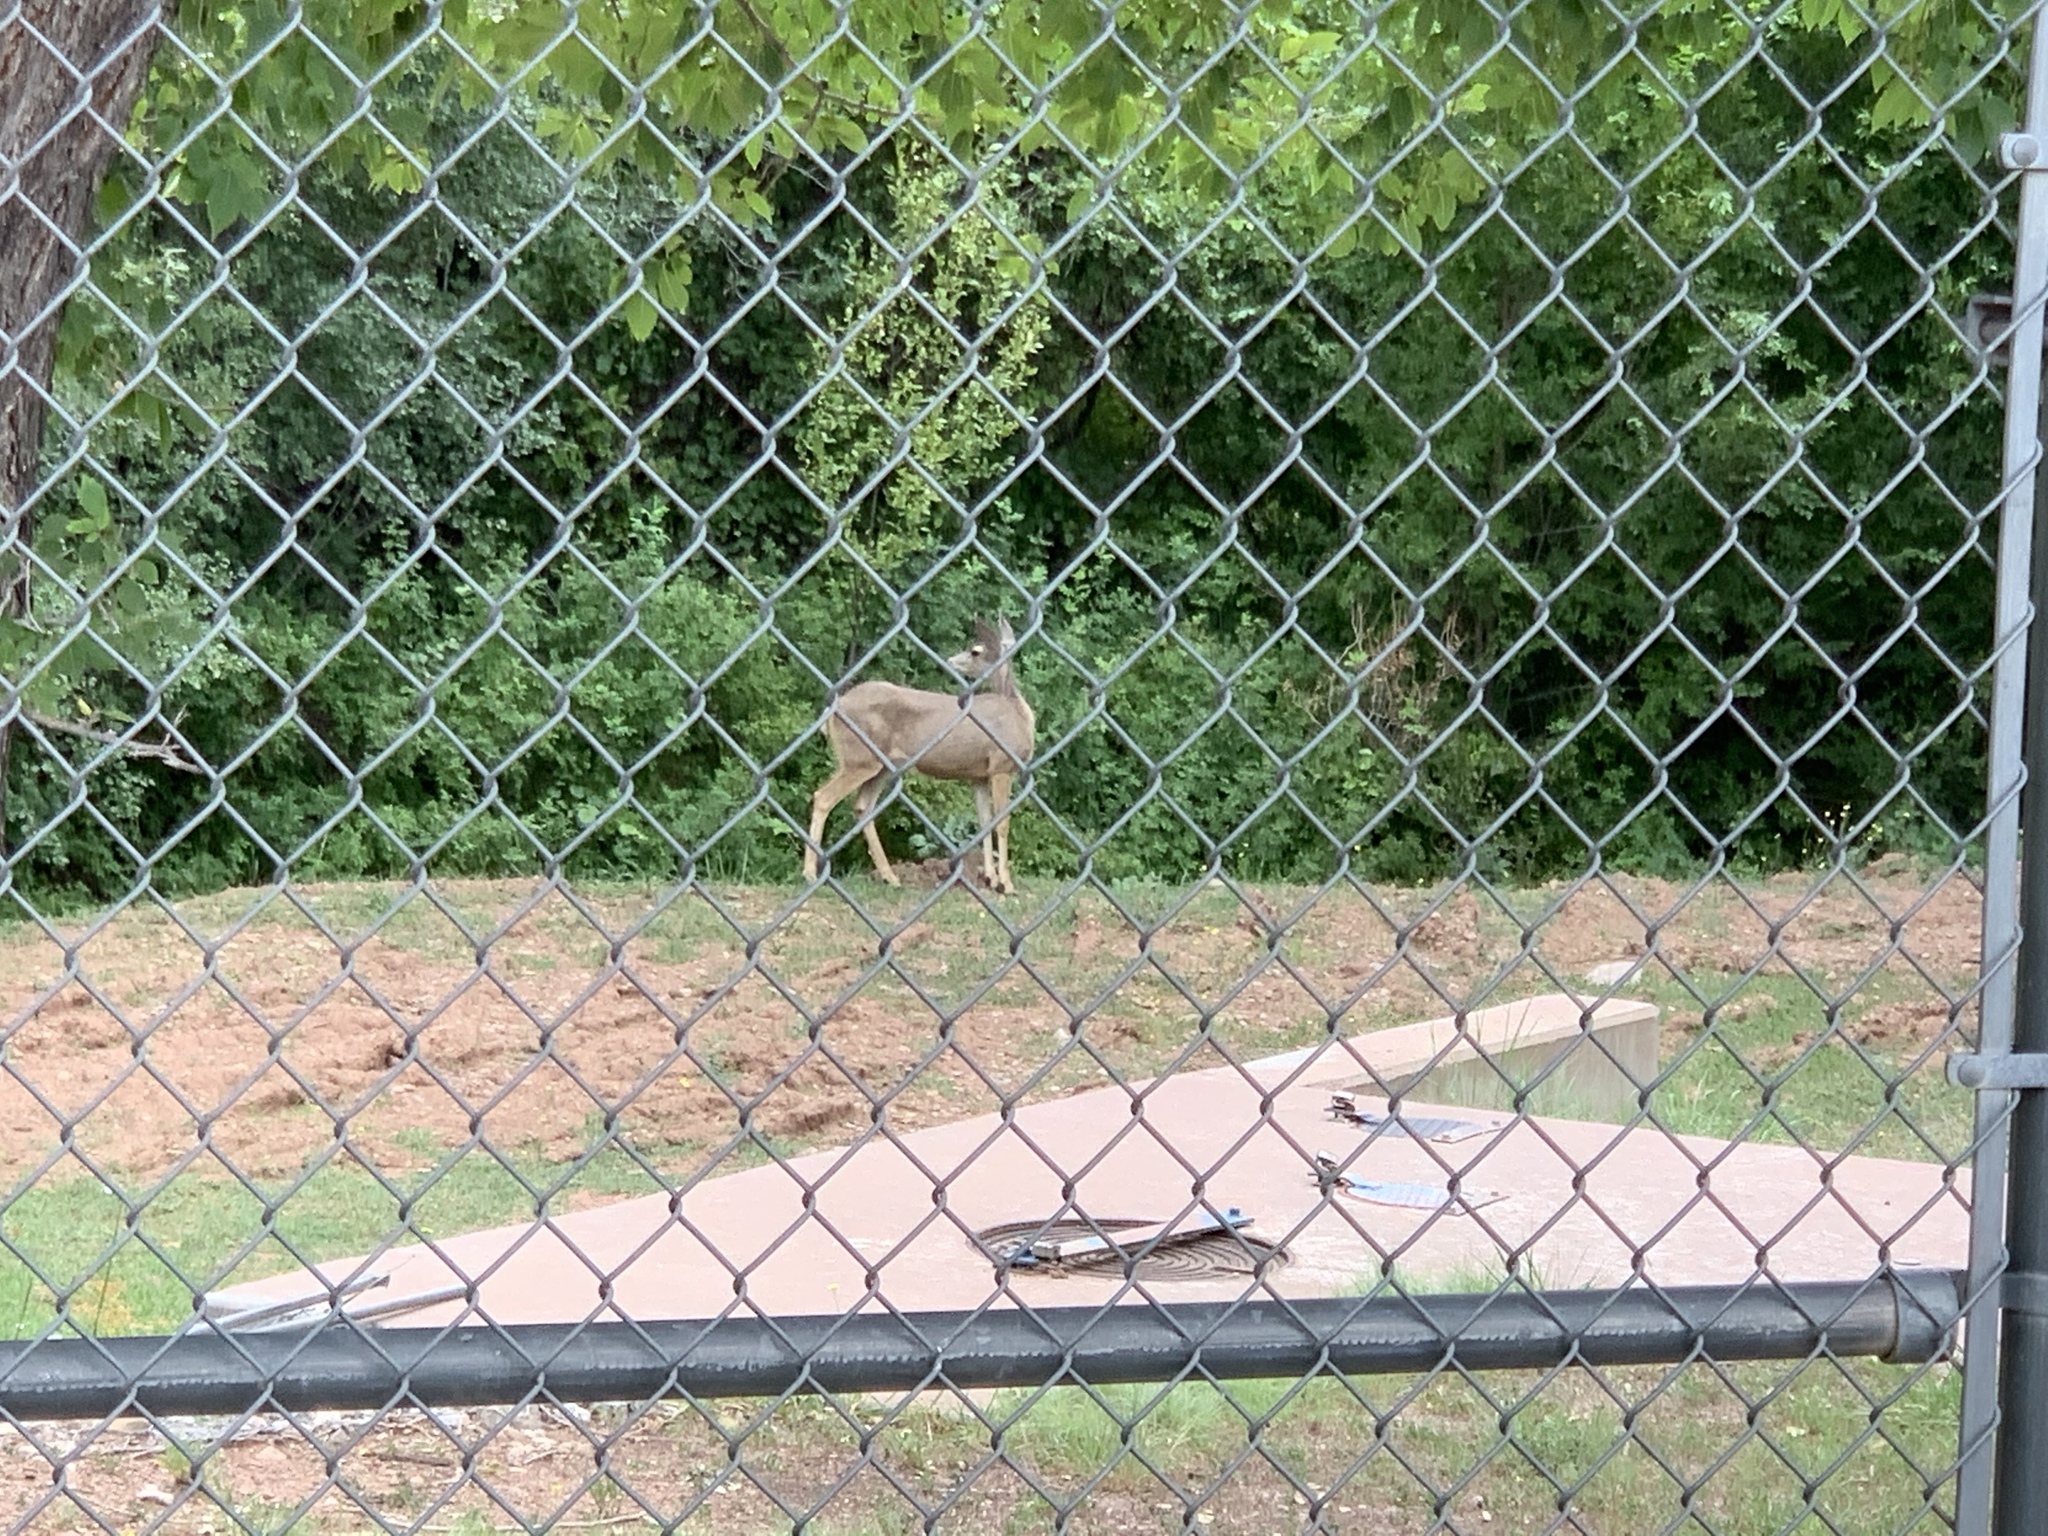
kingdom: Animalia
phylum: Chordata
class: Mammalia
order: Artiodactyla
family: Cervidae
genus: Odocoileus
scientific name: Odocoileus hemionus
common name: Mule deer
